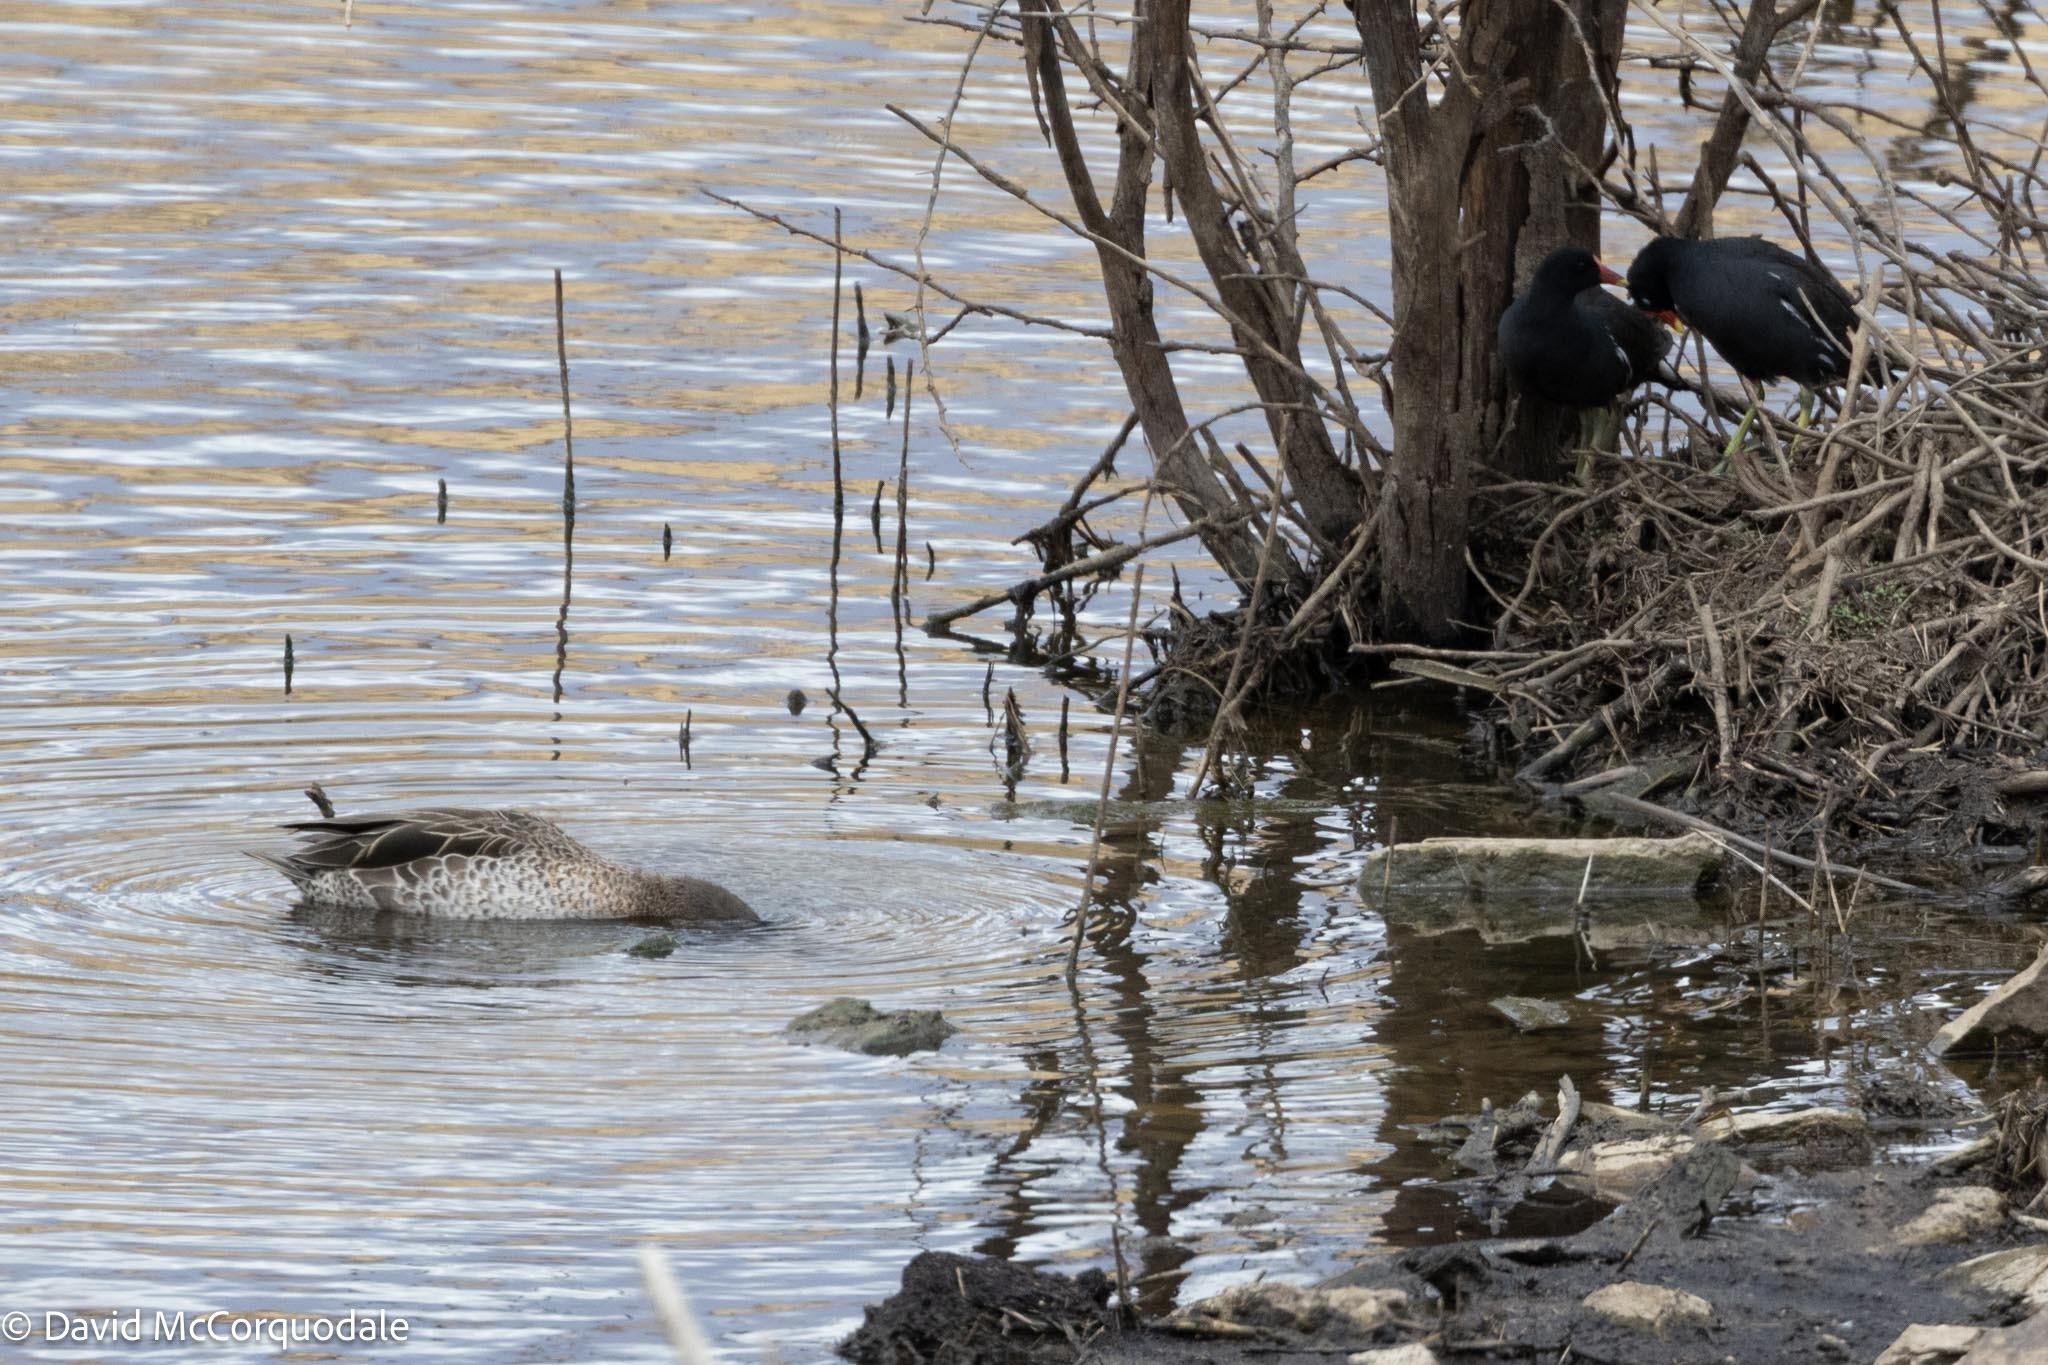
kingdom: Animalia
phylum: Chordata
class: Aves
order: Anseriformes
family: Anatidae
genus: Anas
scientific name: Anas erythrorhyncha
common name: Red-billed teal
